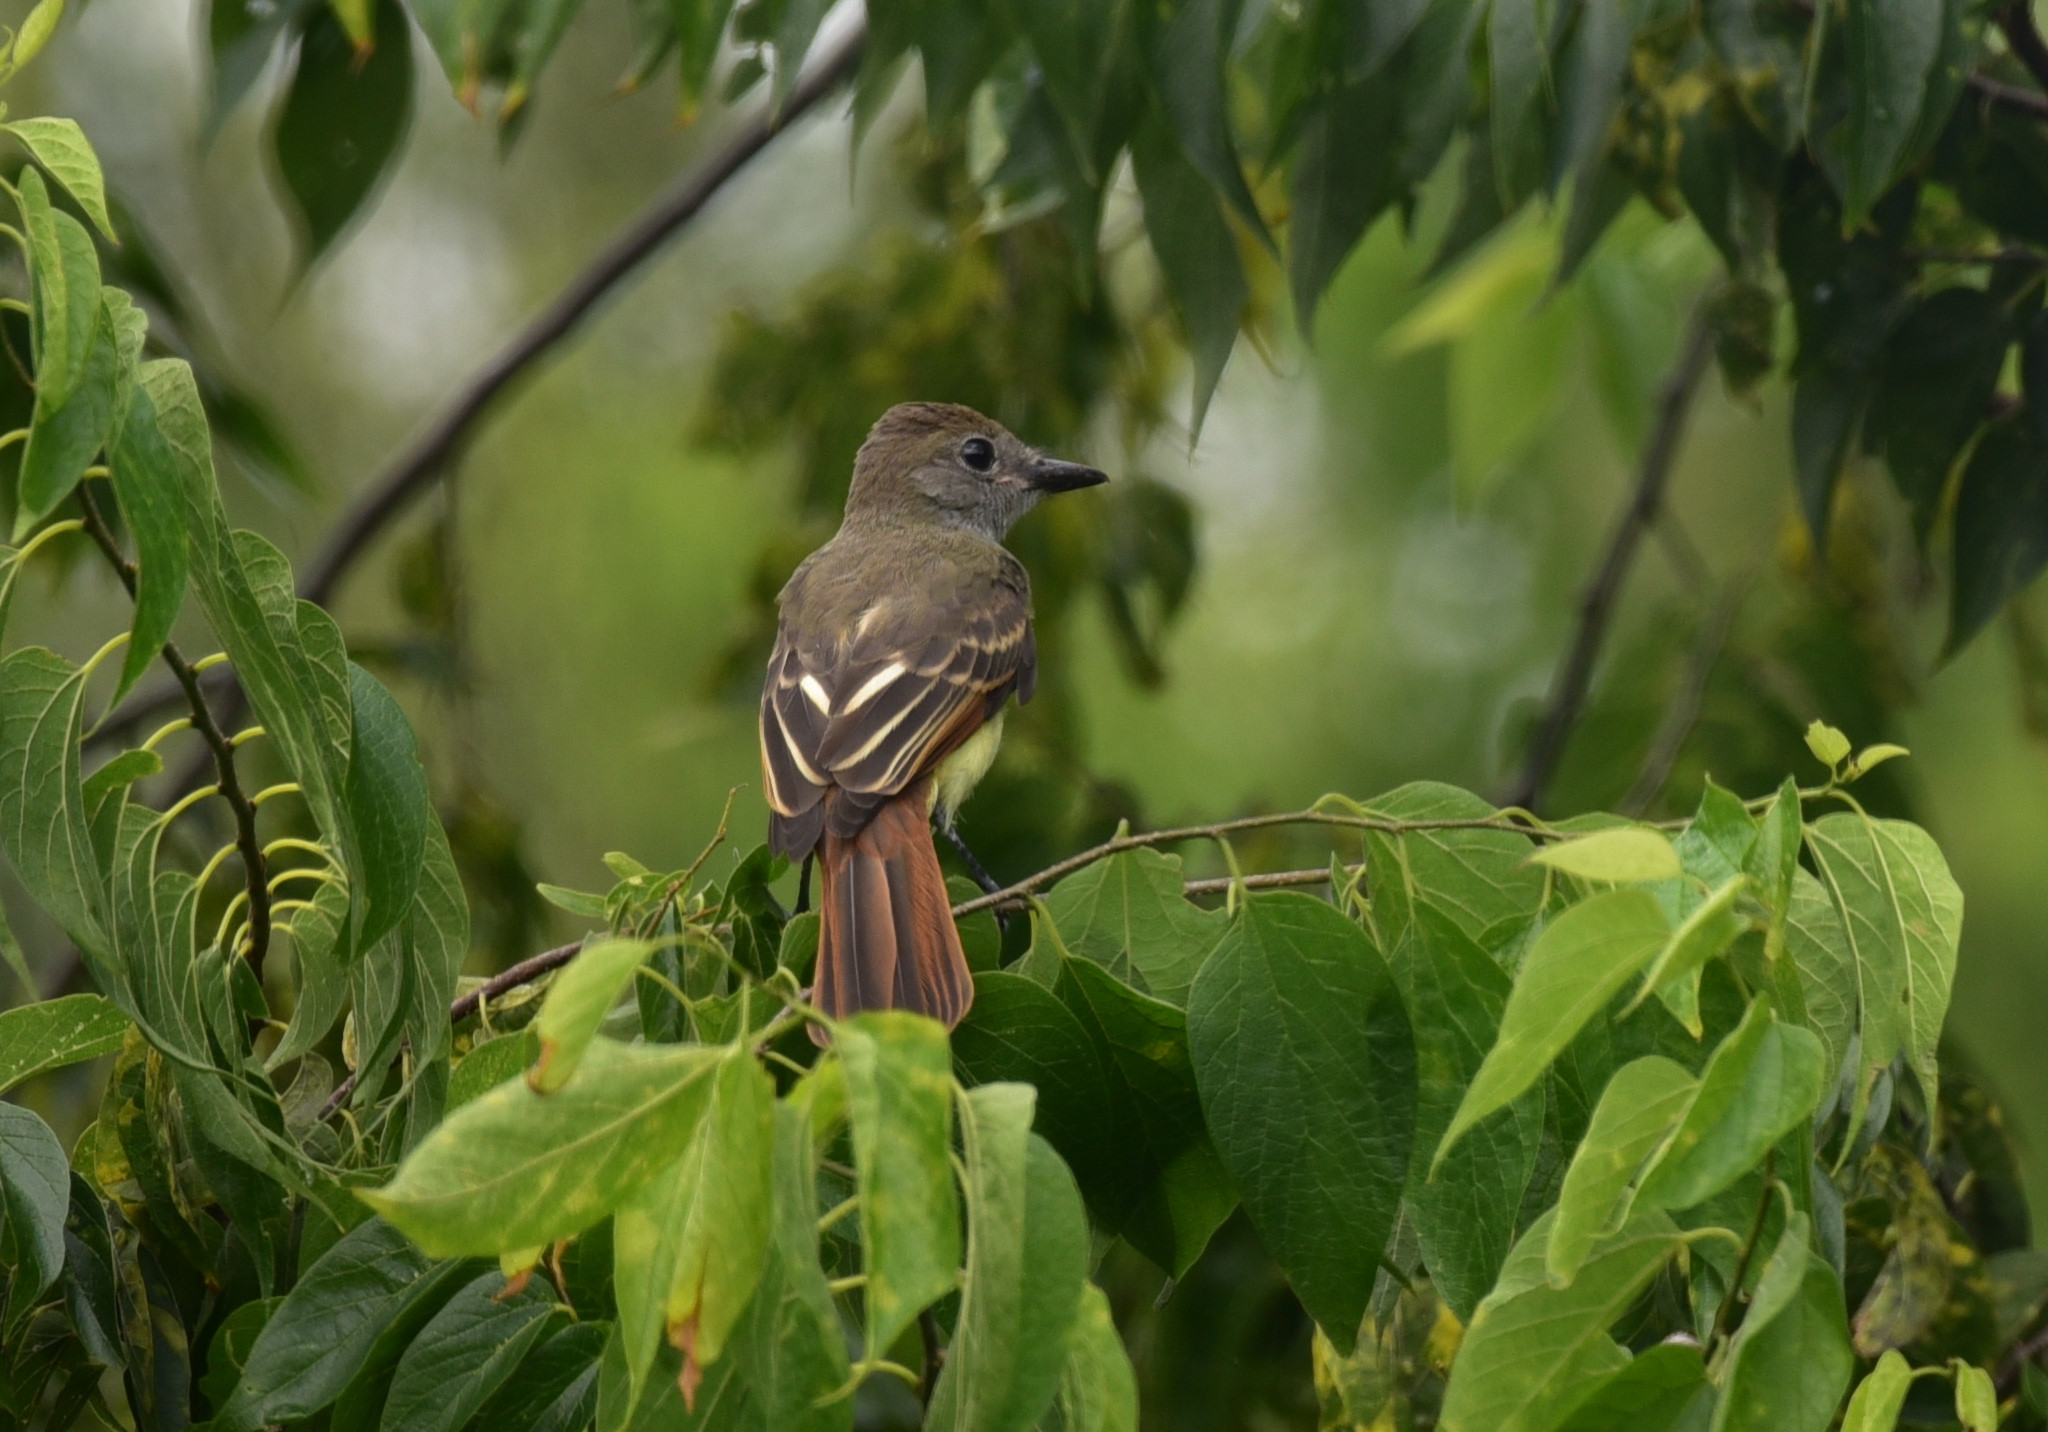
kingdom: Animalia
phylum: Chordata
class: Aves
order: Passeriformes
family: Tyrannidae
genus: Myiarchus
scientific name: Myiarchus crinitus
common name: Great crested flycatcher
